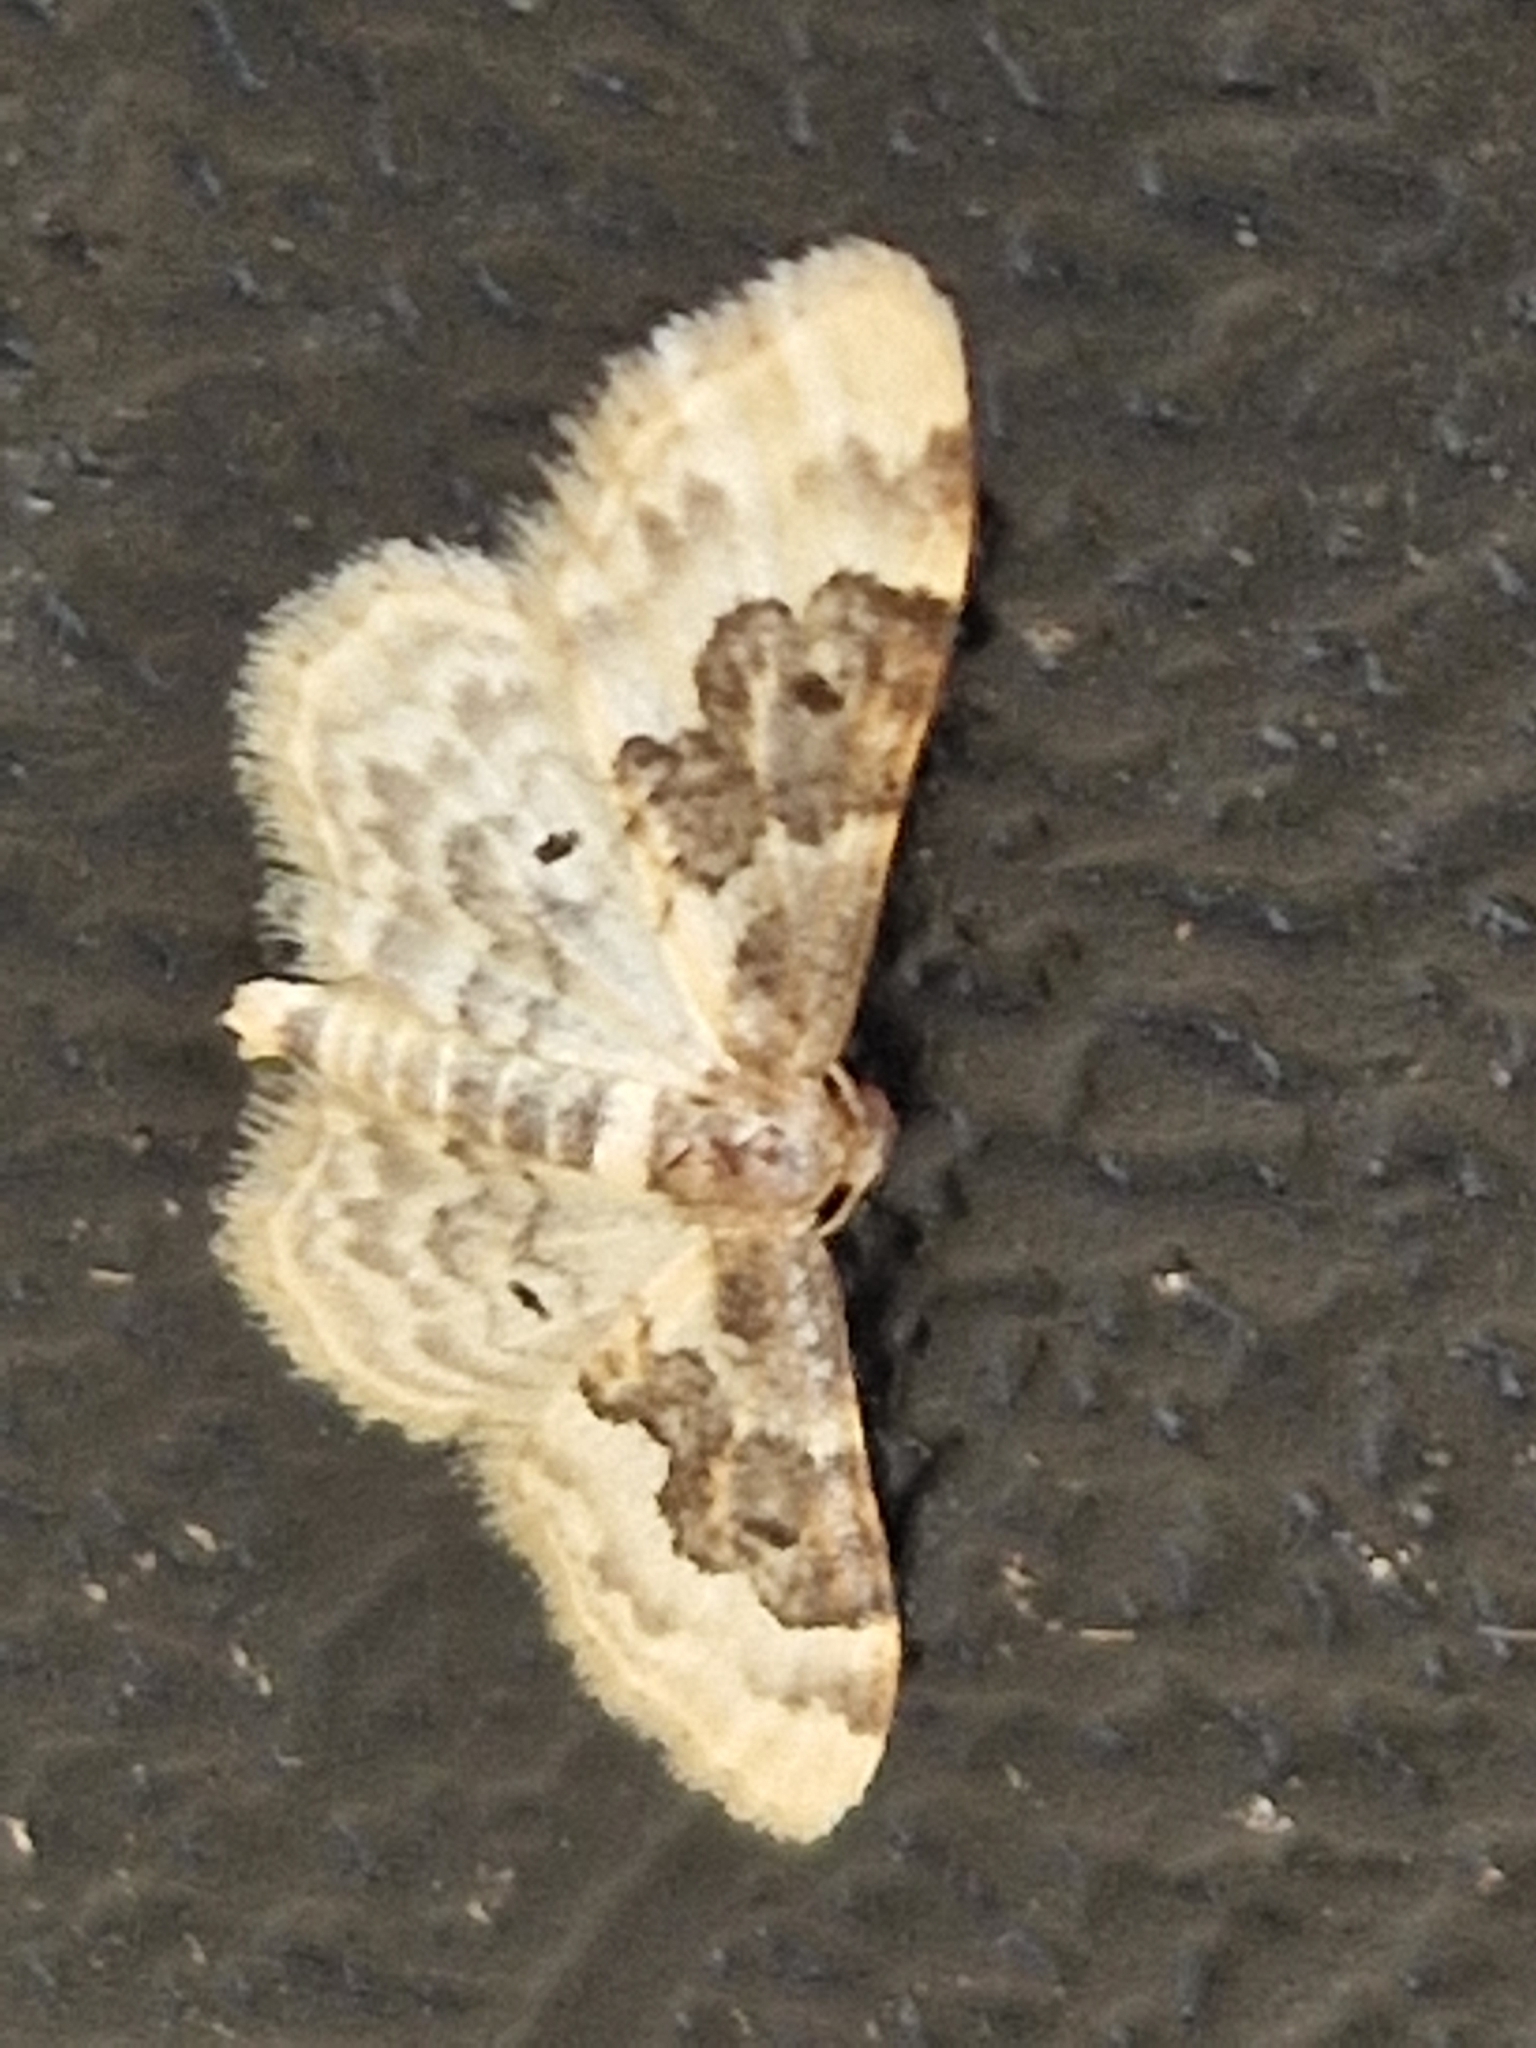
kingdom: Animalia
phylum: Arthropoda
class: Insecta
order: Lepidoptera
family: Geometridae
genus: Idaea
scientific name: Idaea rusticata
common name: Least carpet
